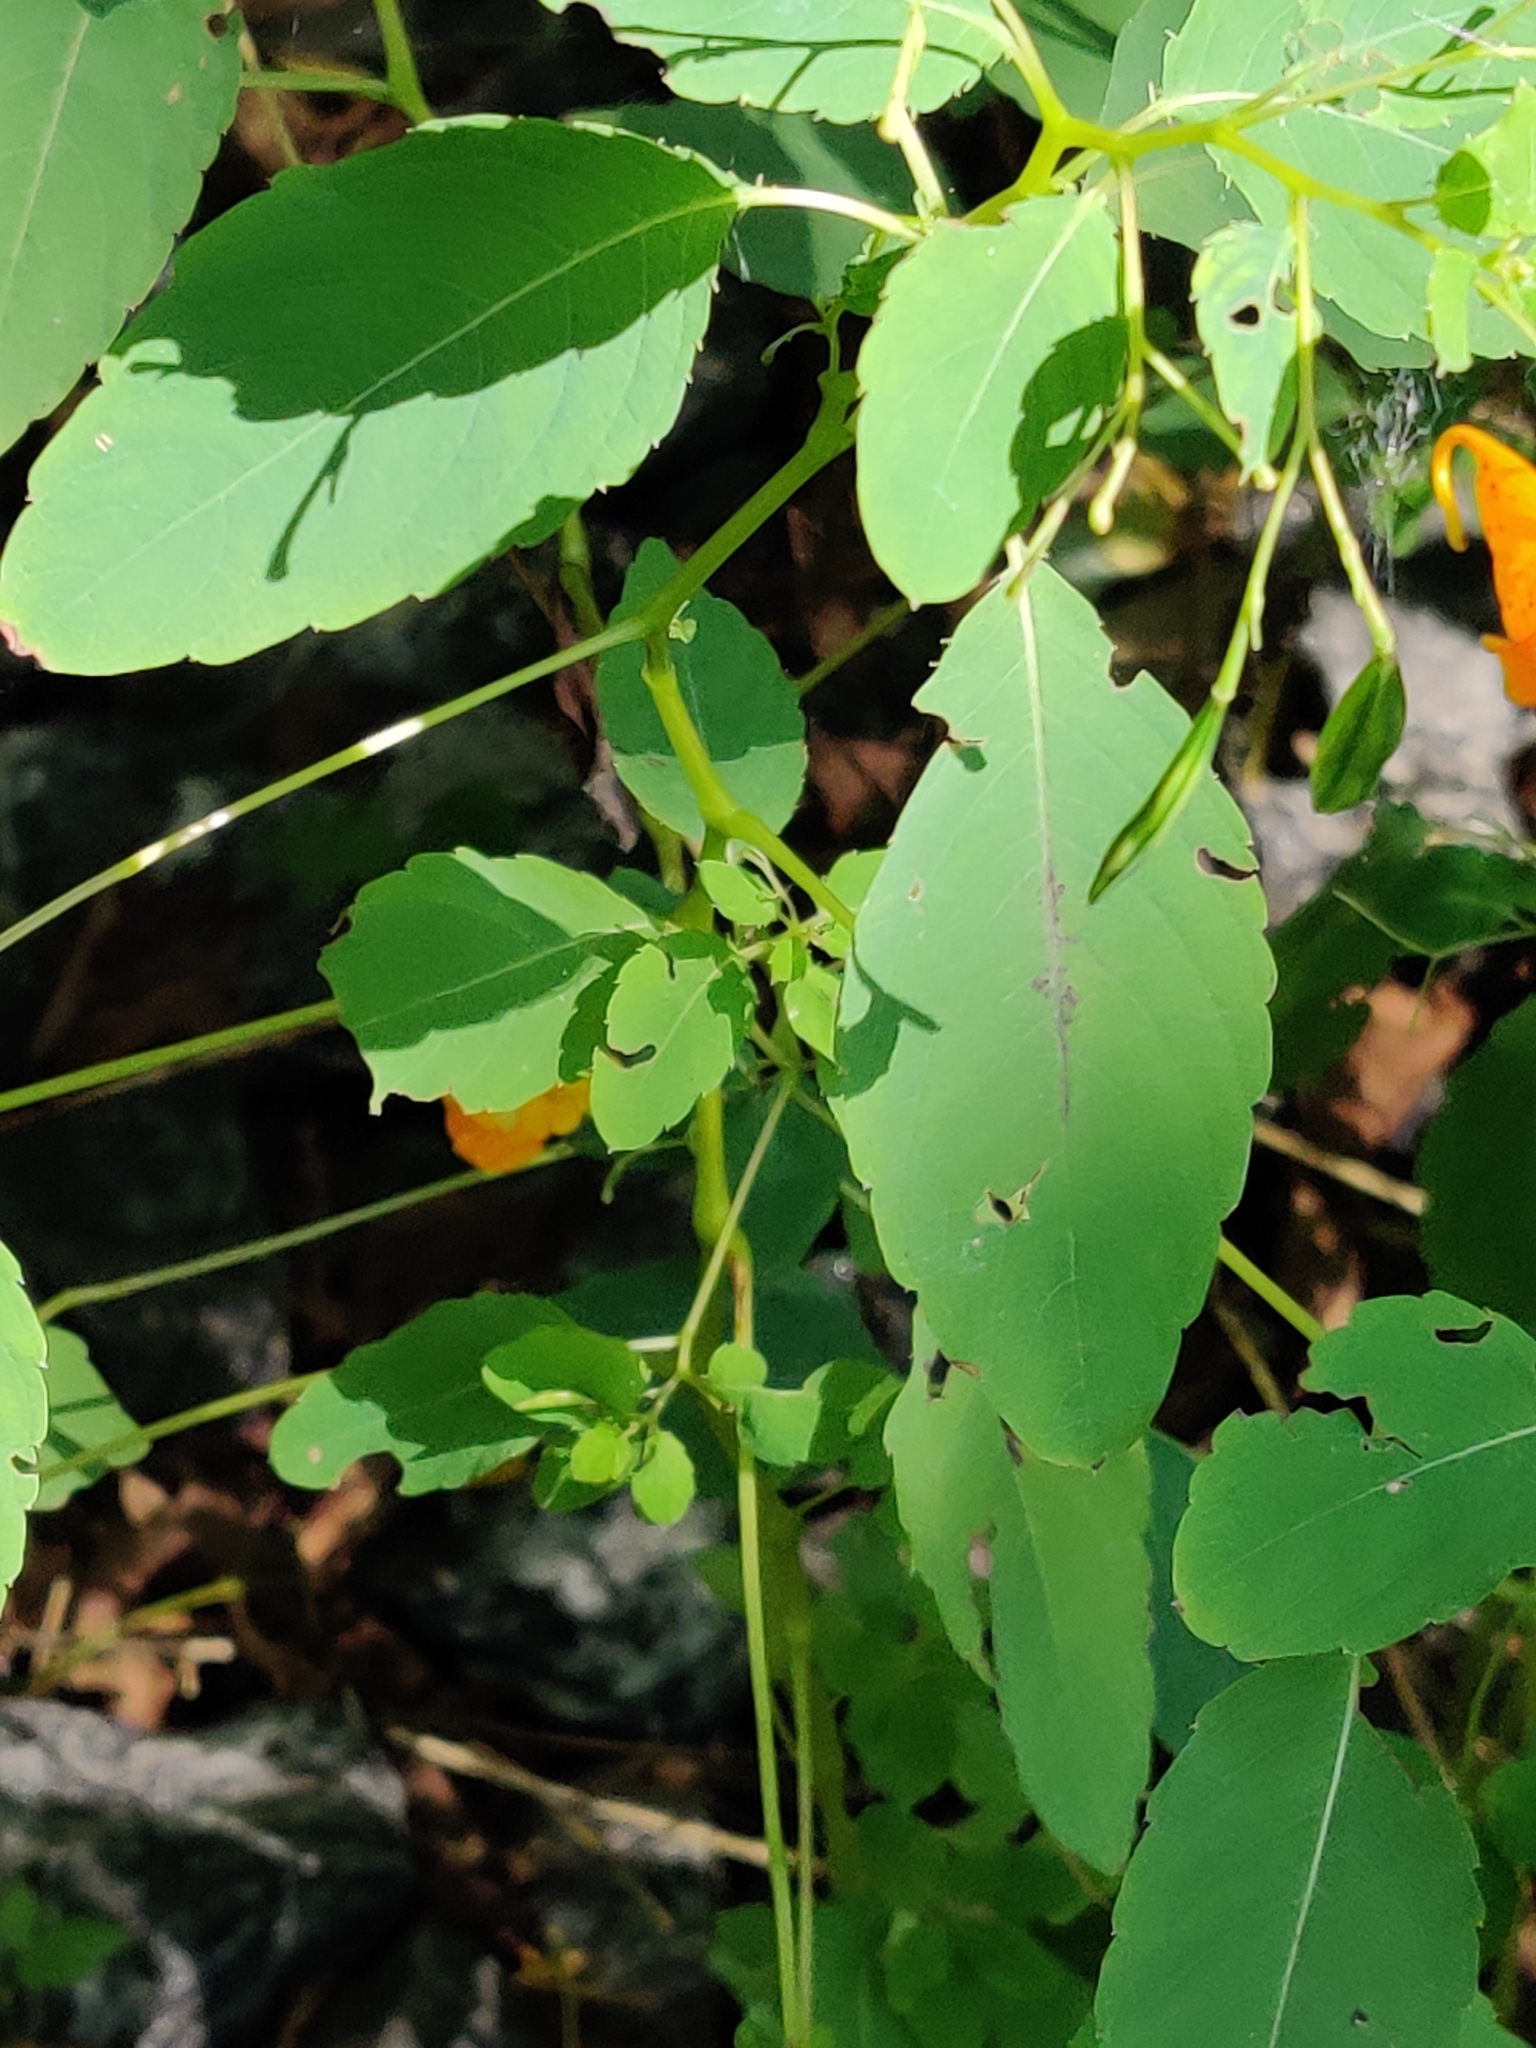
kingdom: Plantae
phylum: Tracheophyta
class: Magnoliopsida
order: Ericales
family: Balsaminaceae
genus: Impatiens
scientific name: Impatiens capensis
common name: Orange balsam
